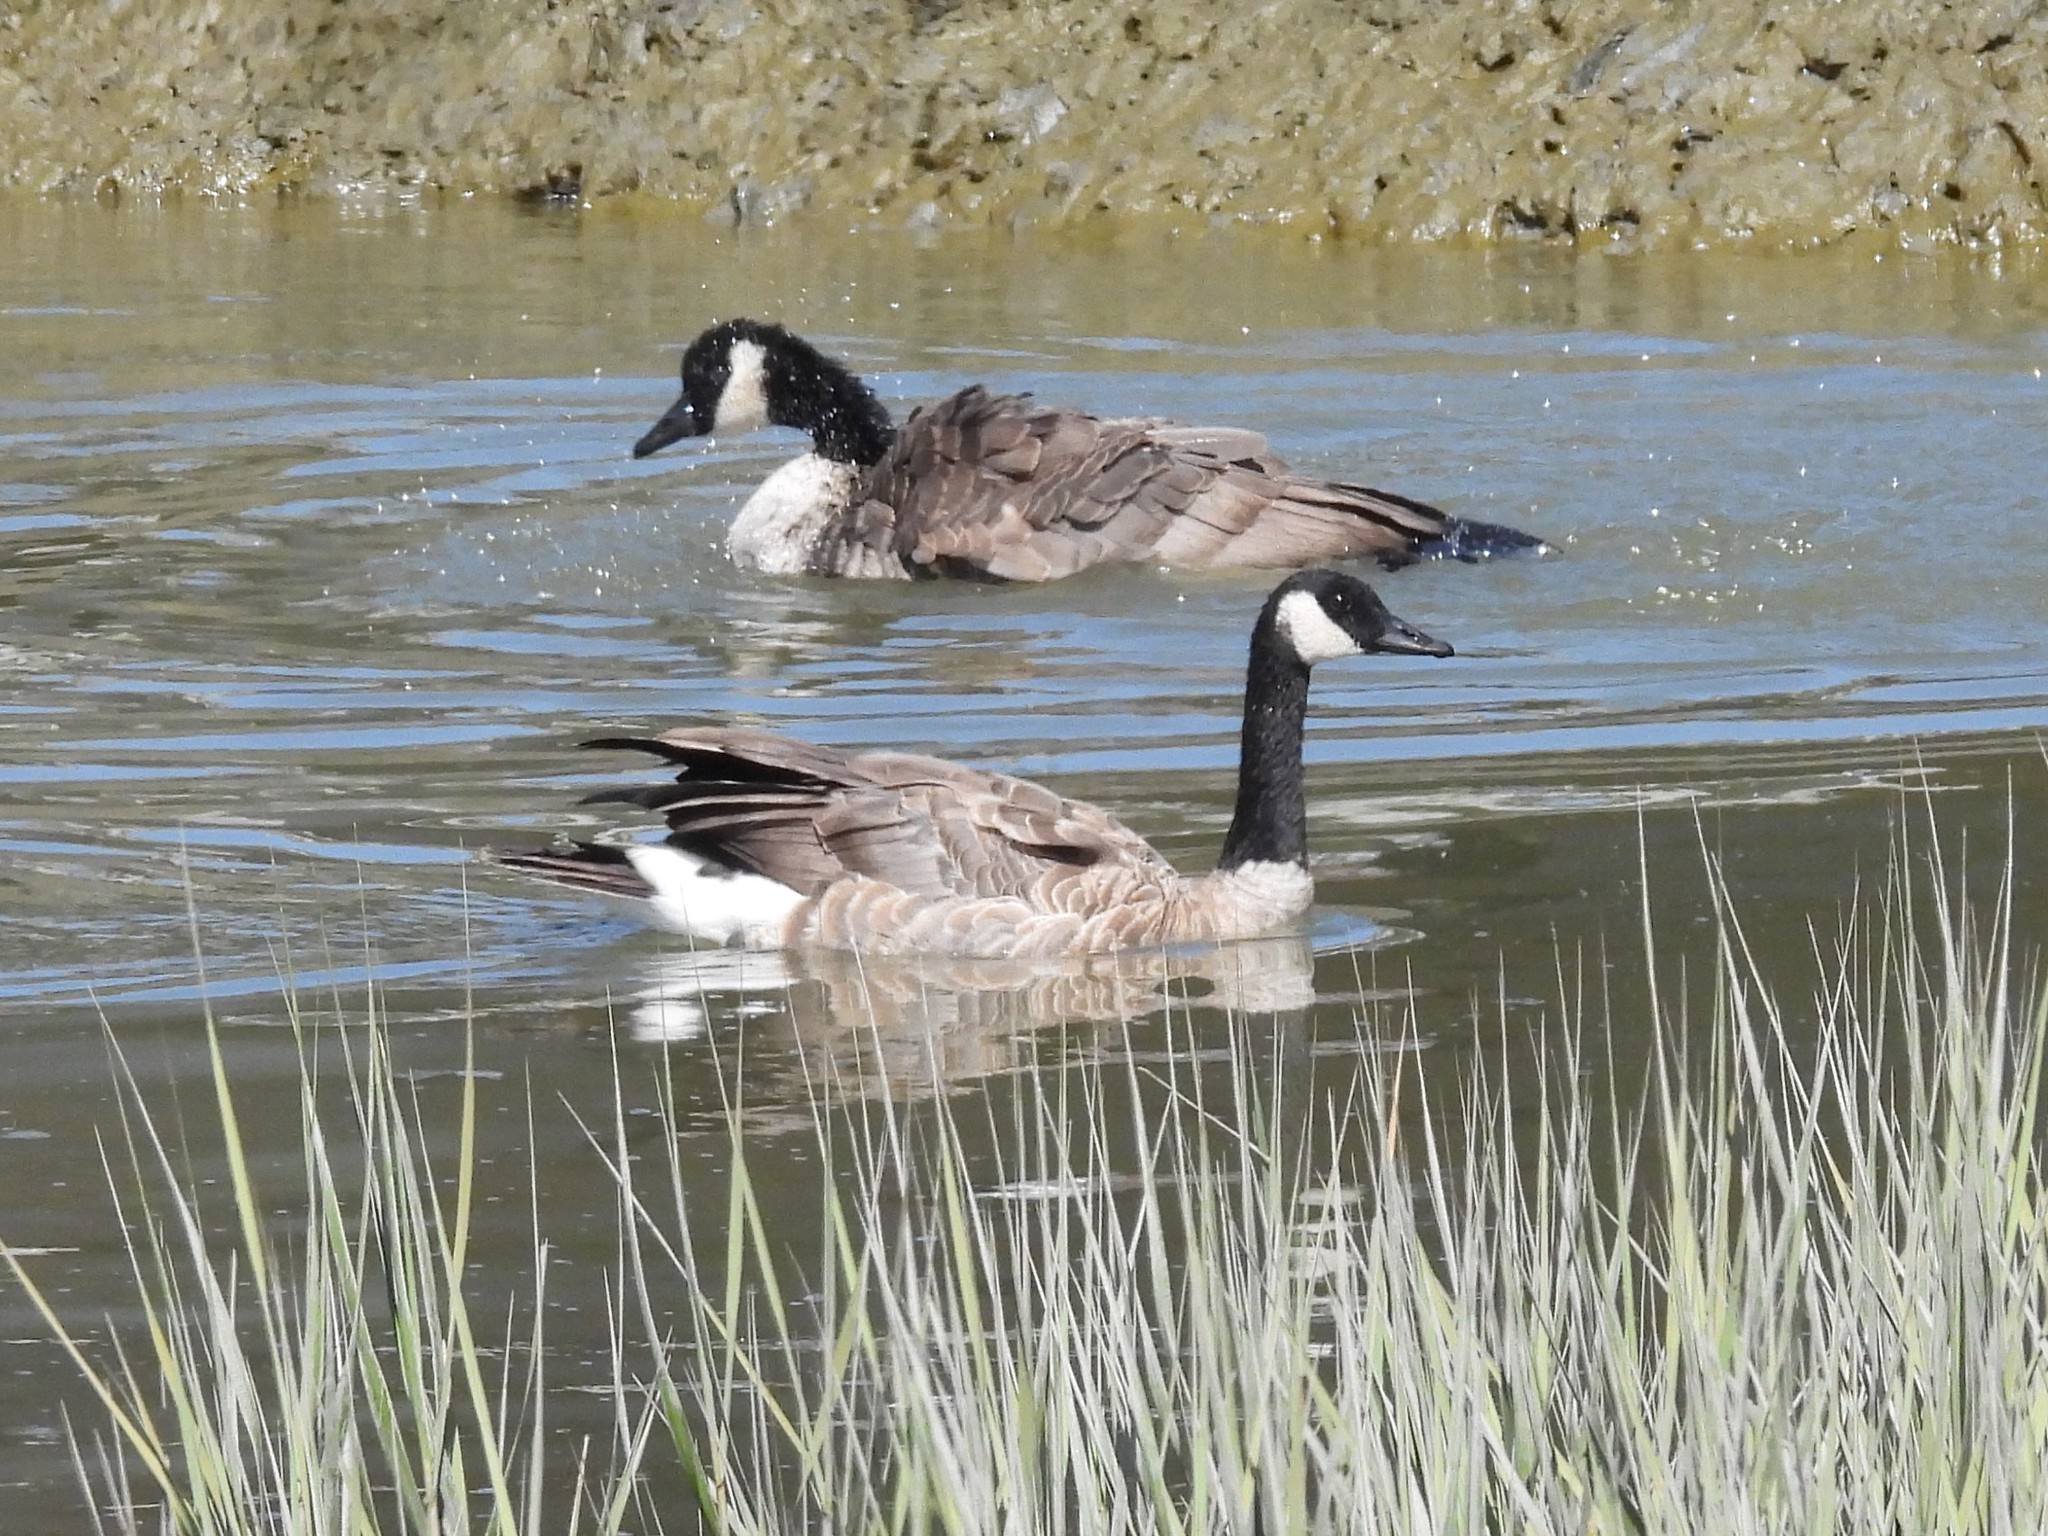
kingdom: Animalia
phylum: Chordata
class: Aves
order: Anseriformes
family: Anatidae
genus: Branta
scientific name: Branta canadensis
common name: Canada goose
